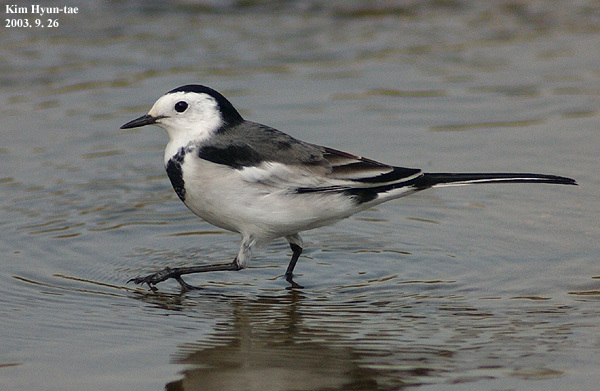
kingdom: Animalia
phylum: Chordata
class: Aves
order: Passeriformes
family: Motacillidae
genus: Motacilla
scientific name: Motacilla alba
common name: White wagtail
